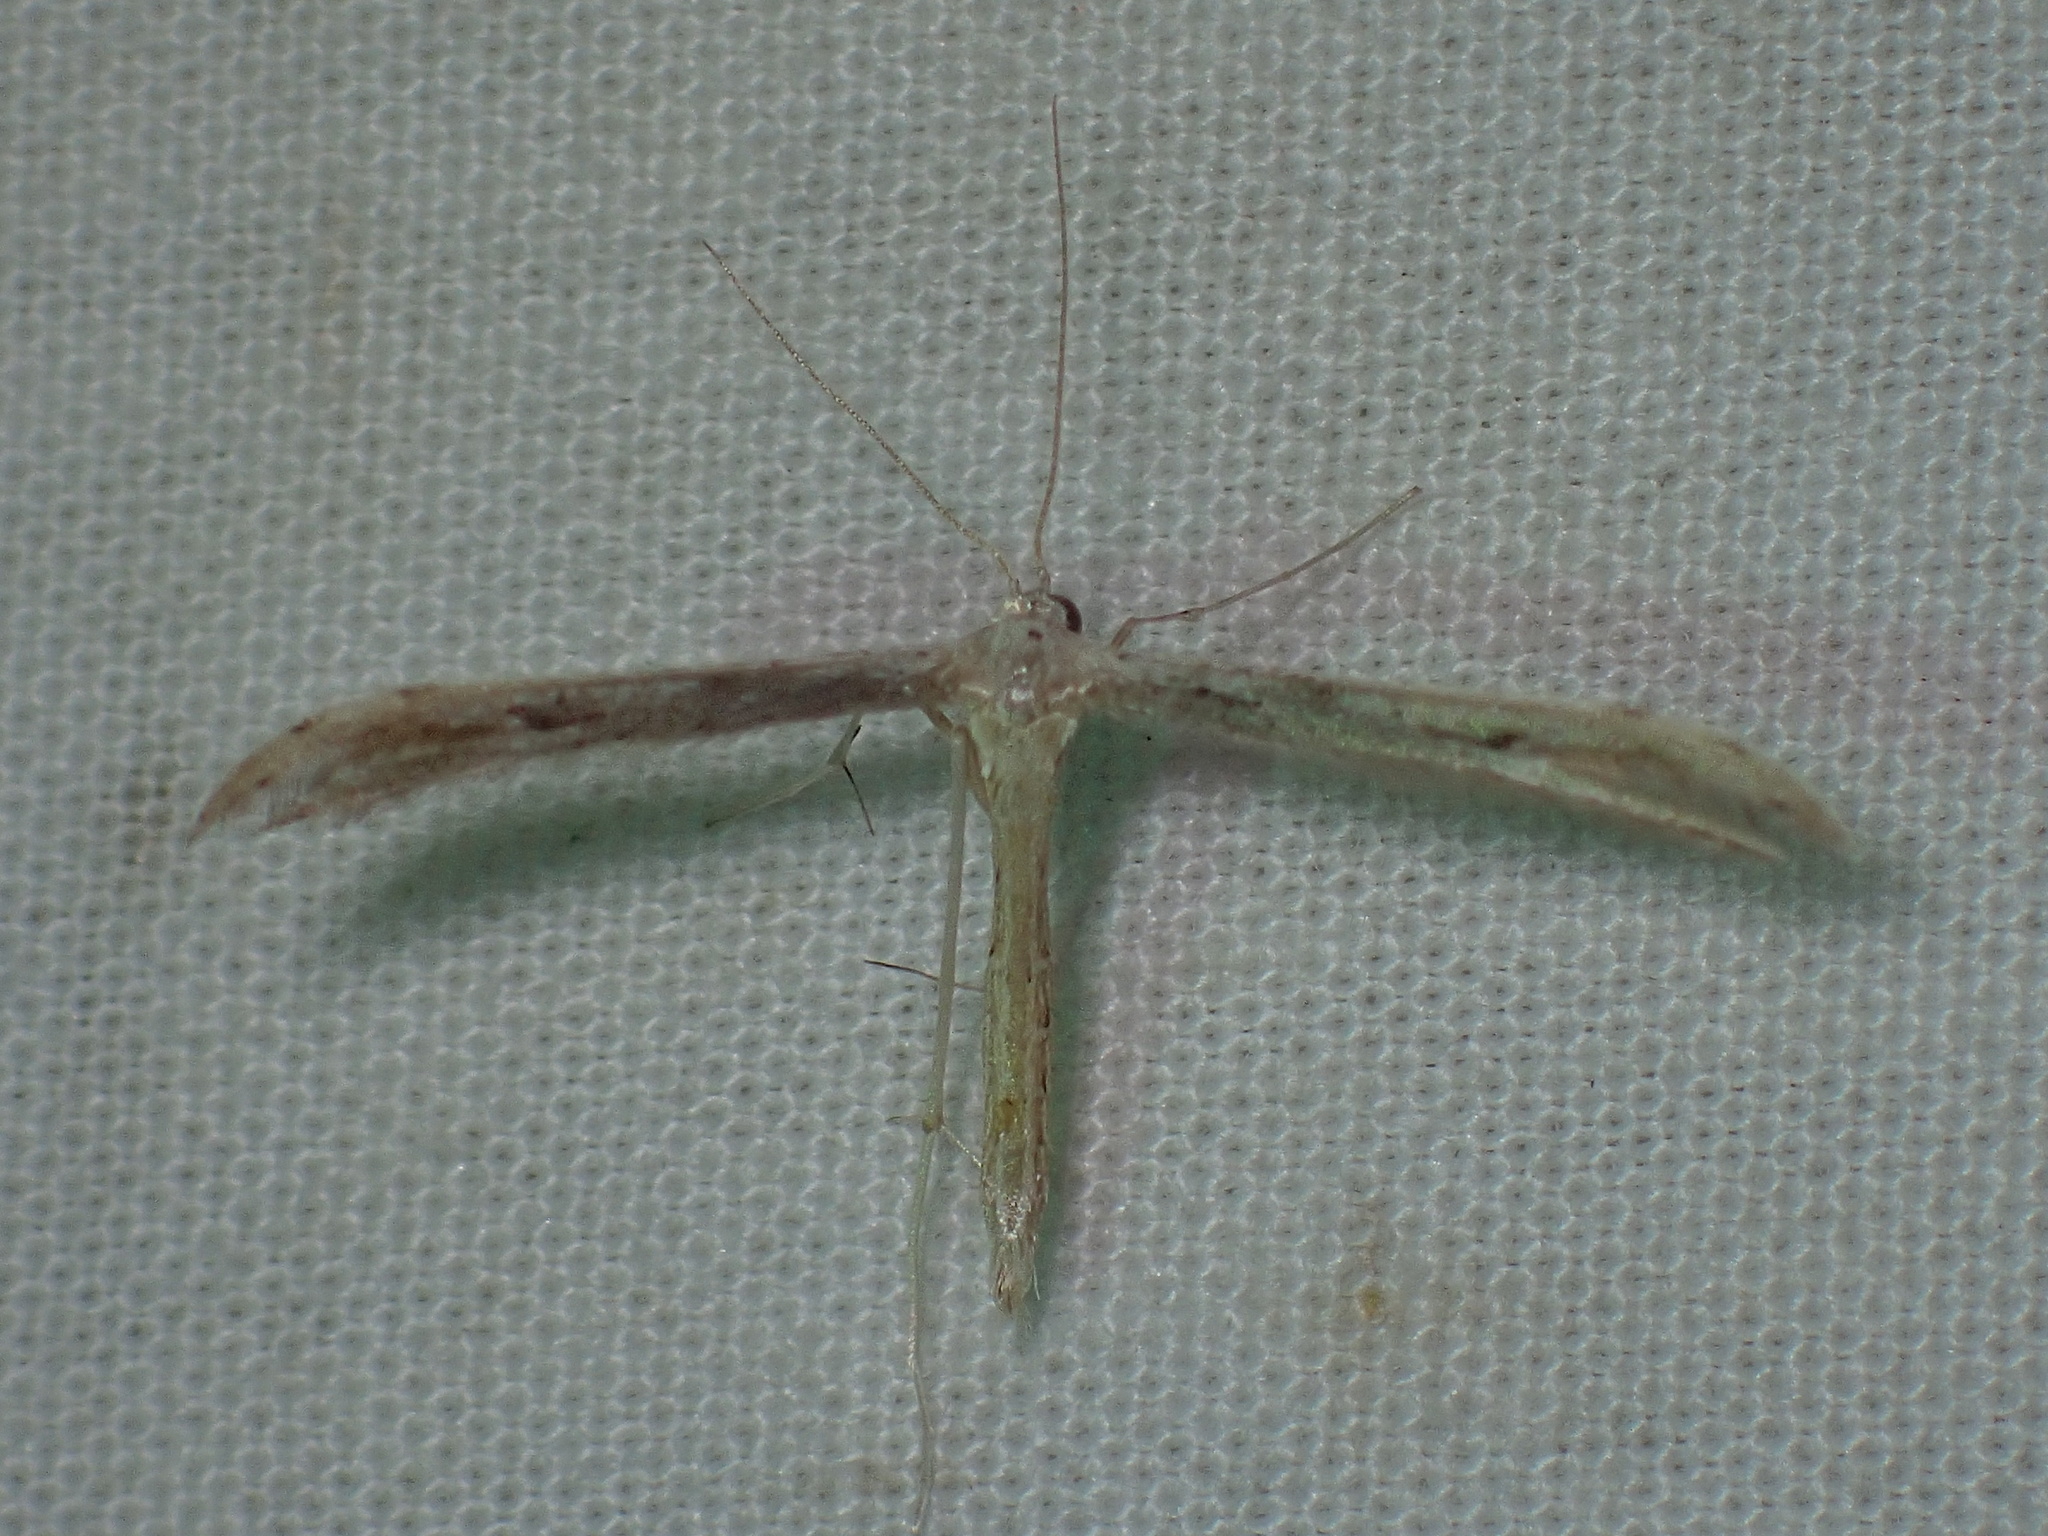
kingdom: Animalia
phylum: Arthropoda
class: Insecta
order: Lepidoptera
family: Pterophoridae
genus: Pselnophorus
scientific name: Pselnophorus belfragei
